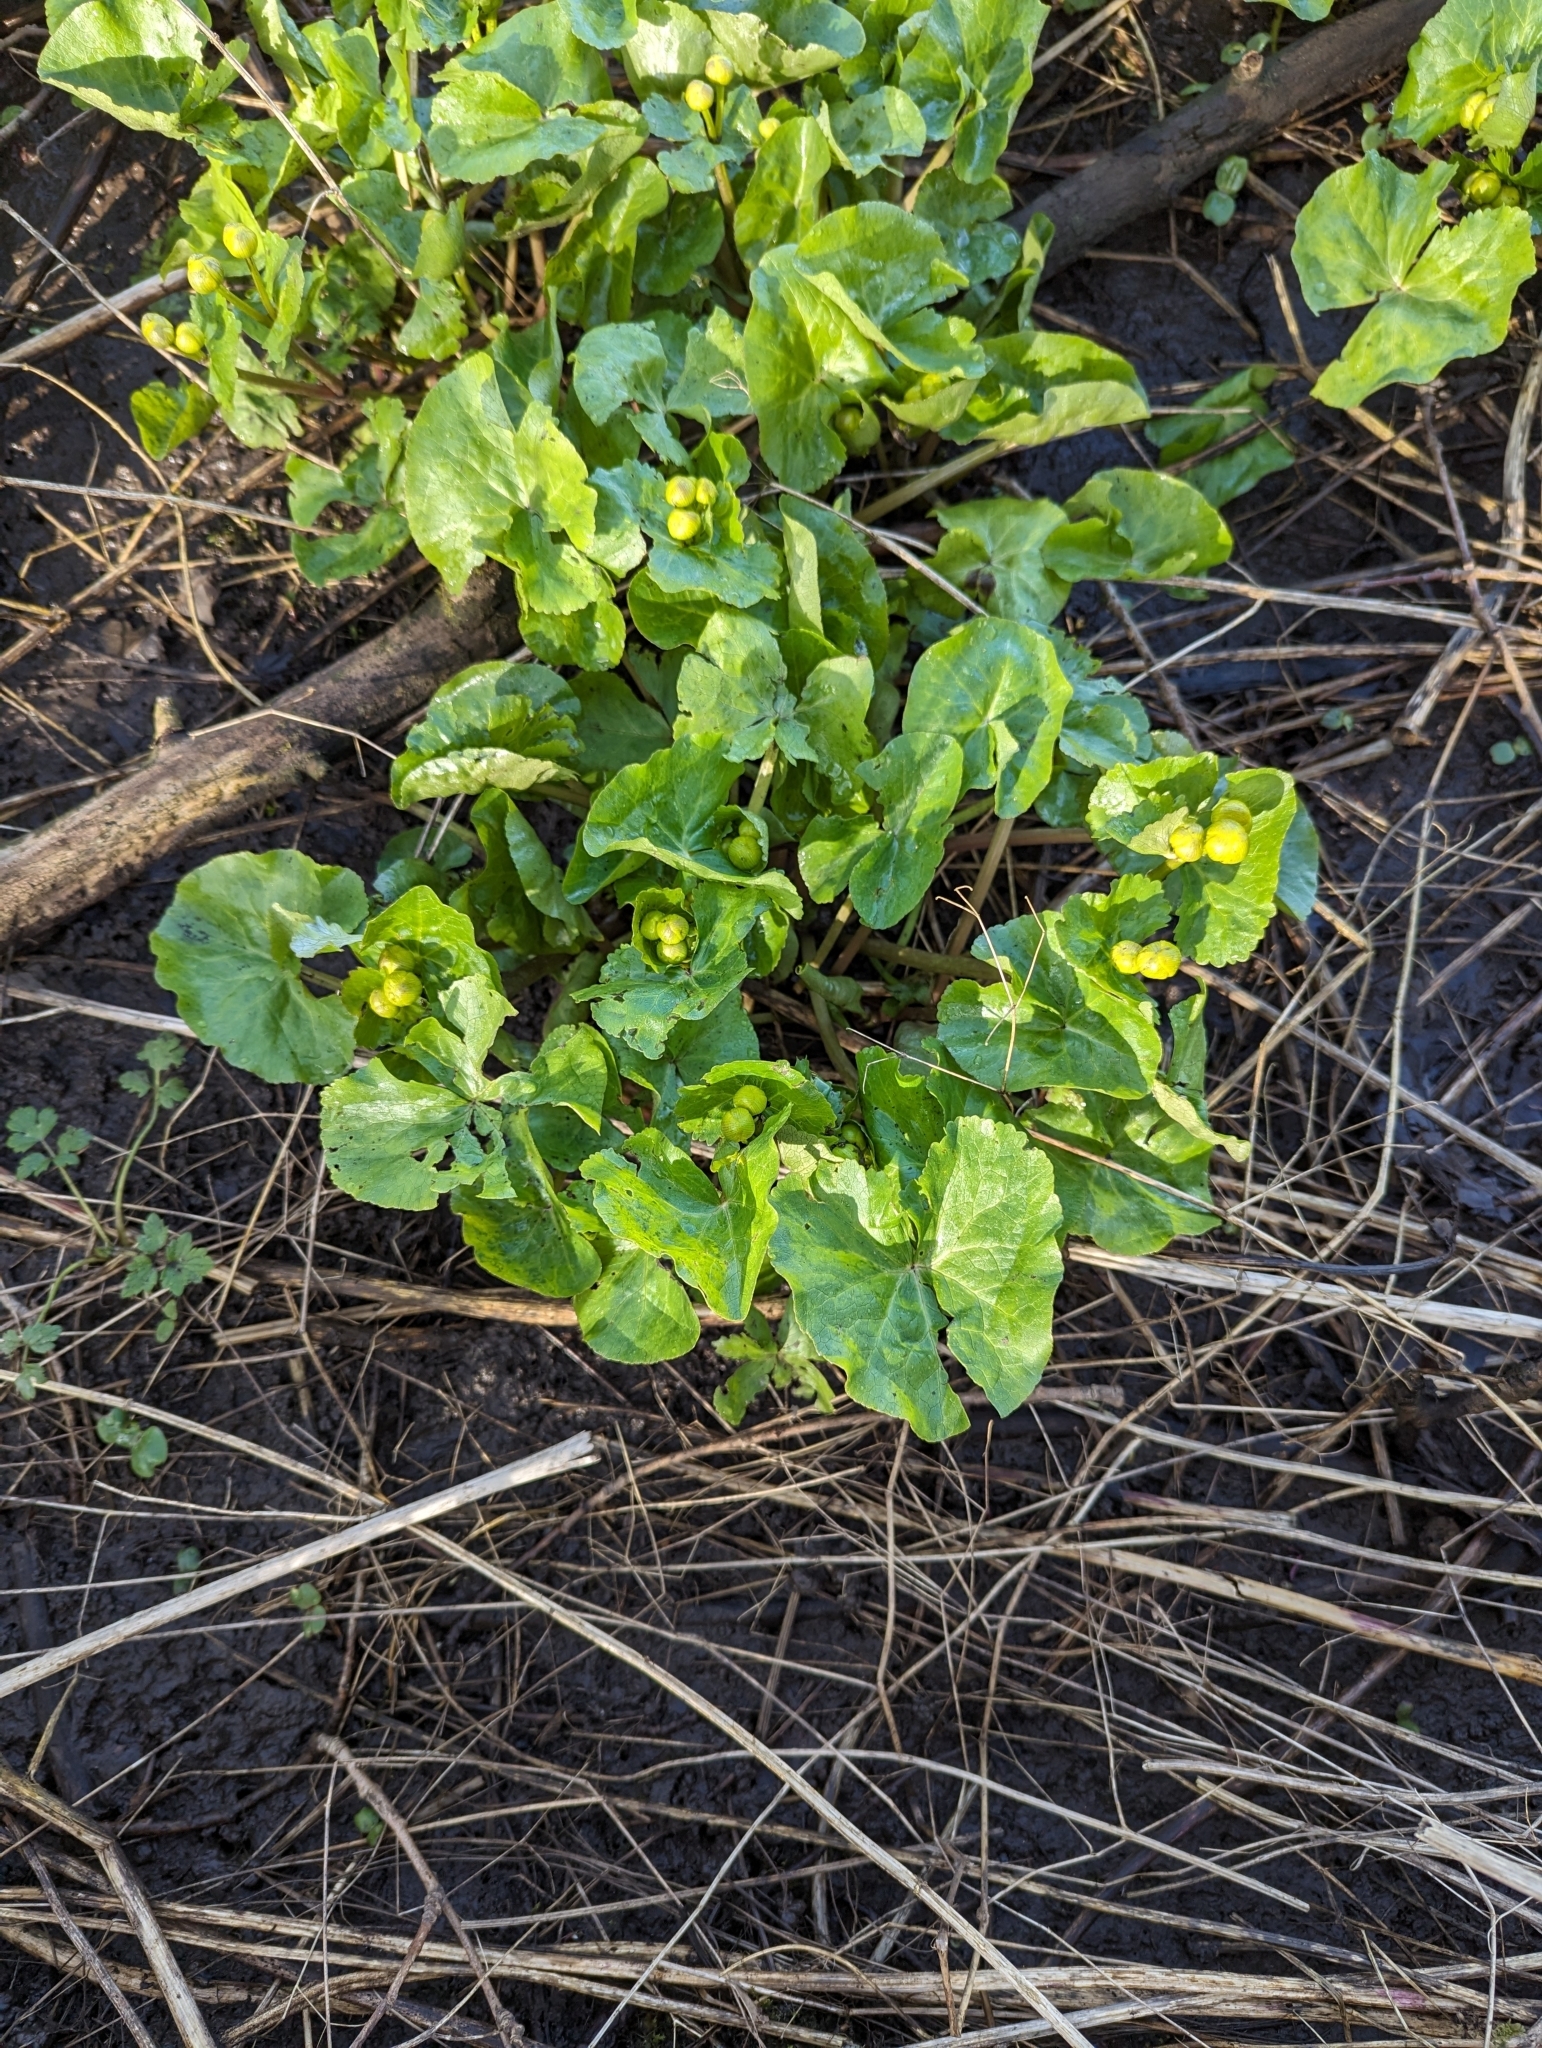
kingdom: Plantae
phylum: Tracheophyta
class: Magnoliopsida
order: Ranunculales
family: Ranunculaceae
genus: Caltha
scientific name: Caltha palustris
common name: Marsh marigold
